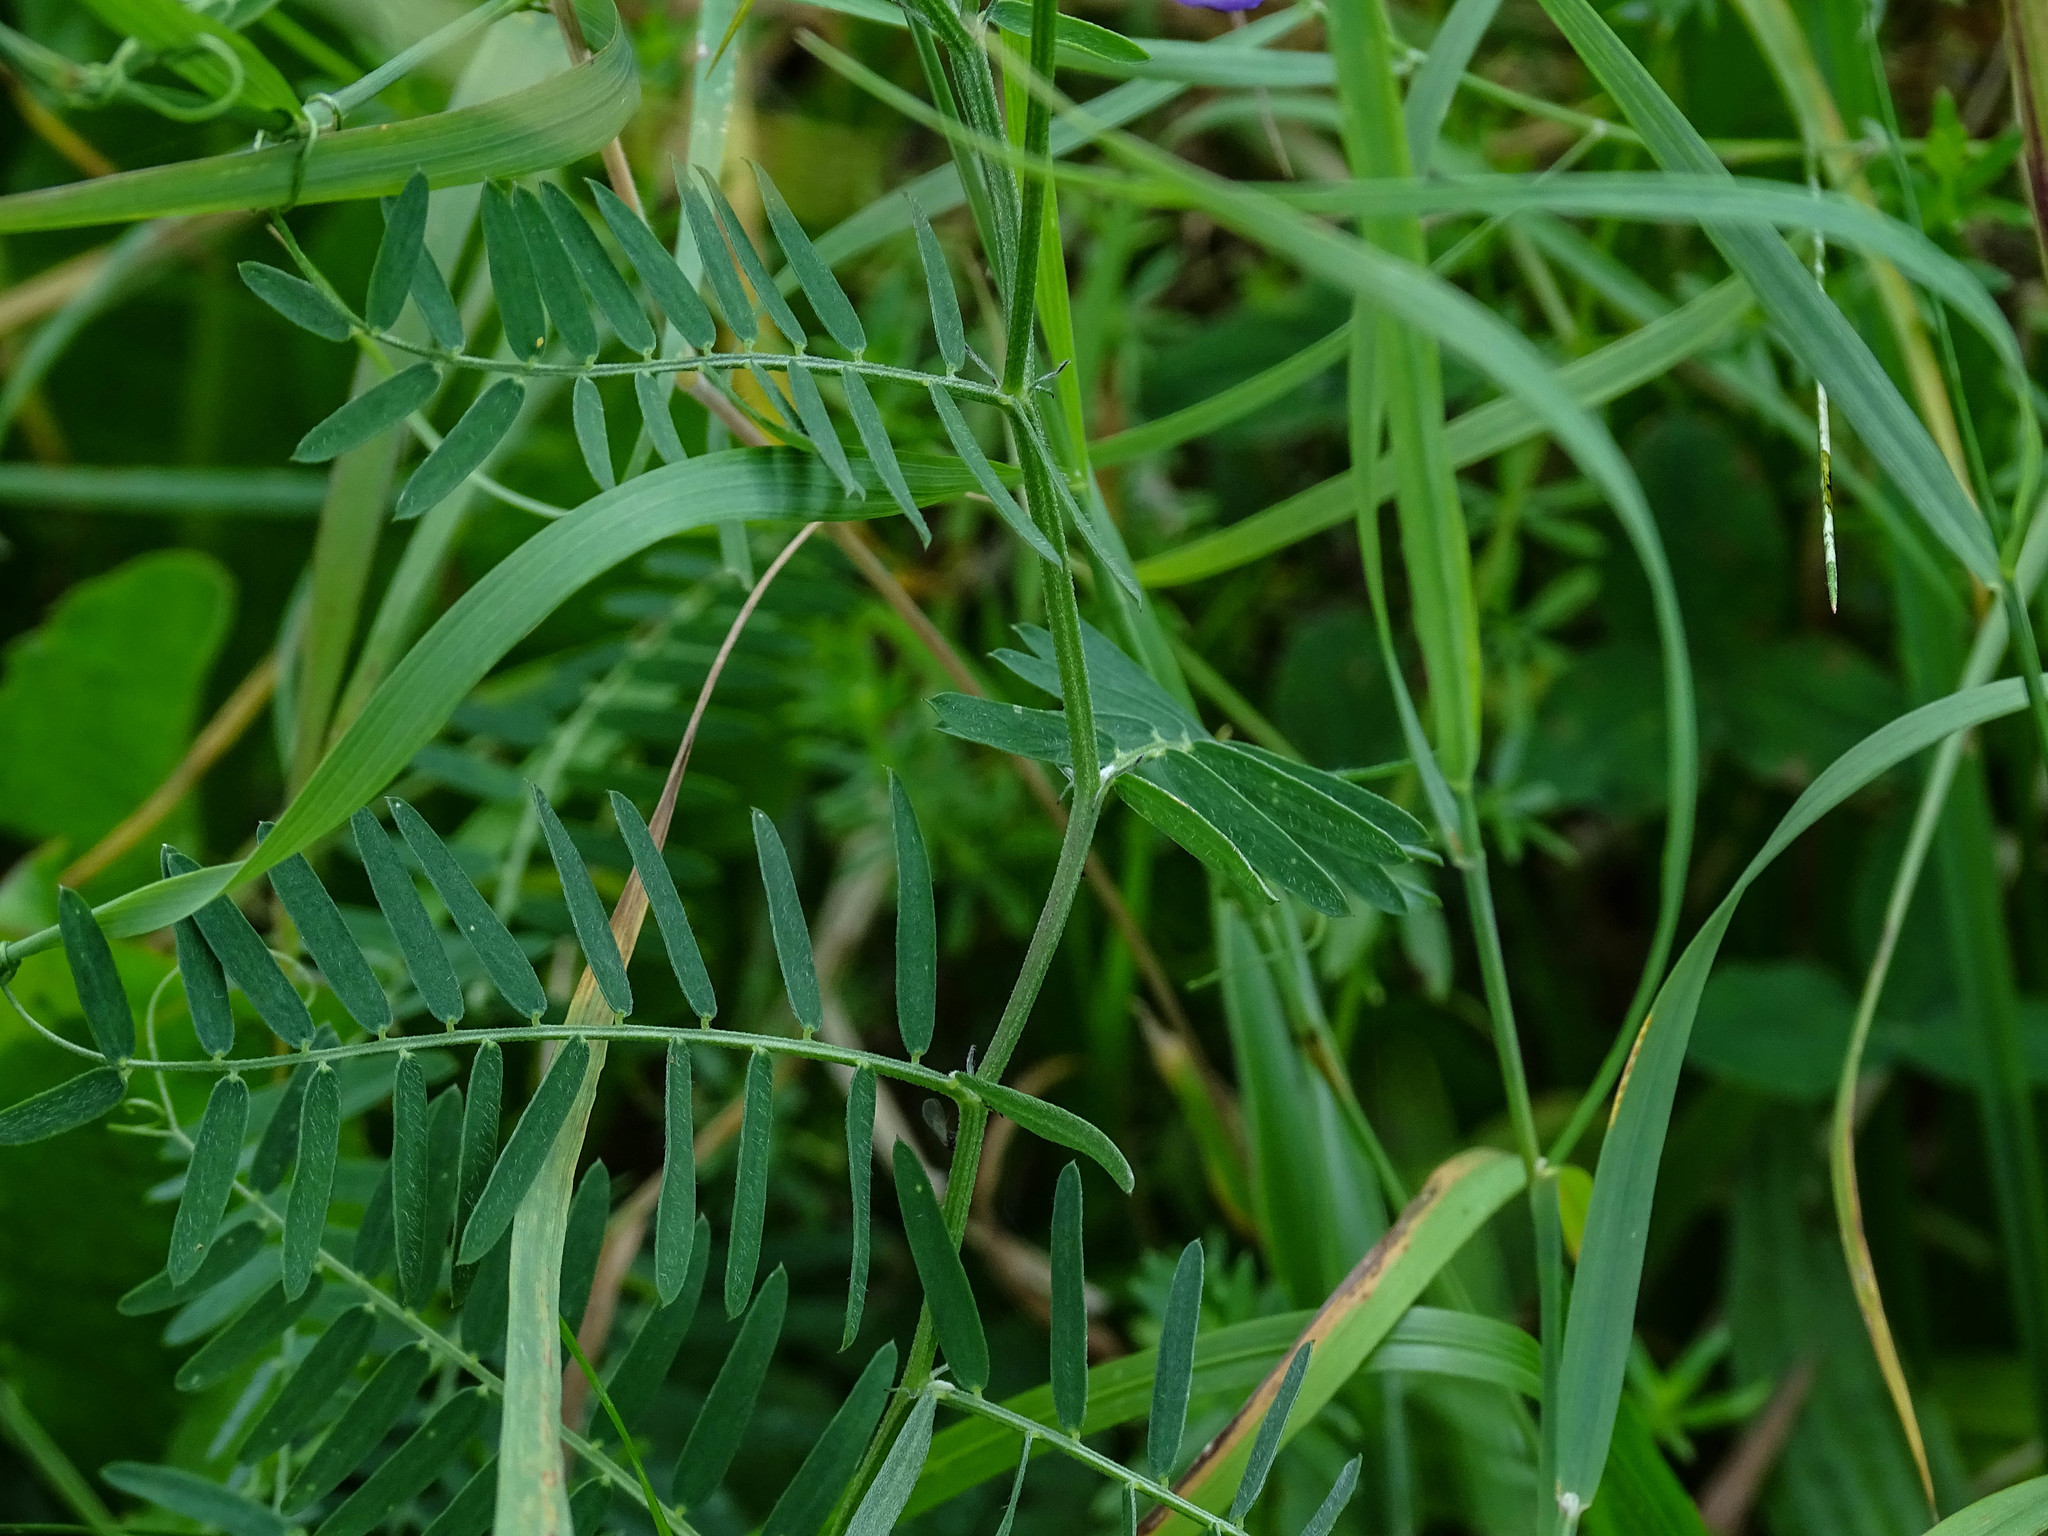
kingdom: Plantae
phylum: Tracheophyta
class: Magnoliopsida
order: Fabales
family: Fabaceae
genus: Vicia
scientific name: Vicia cracca
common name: Bird vetch
